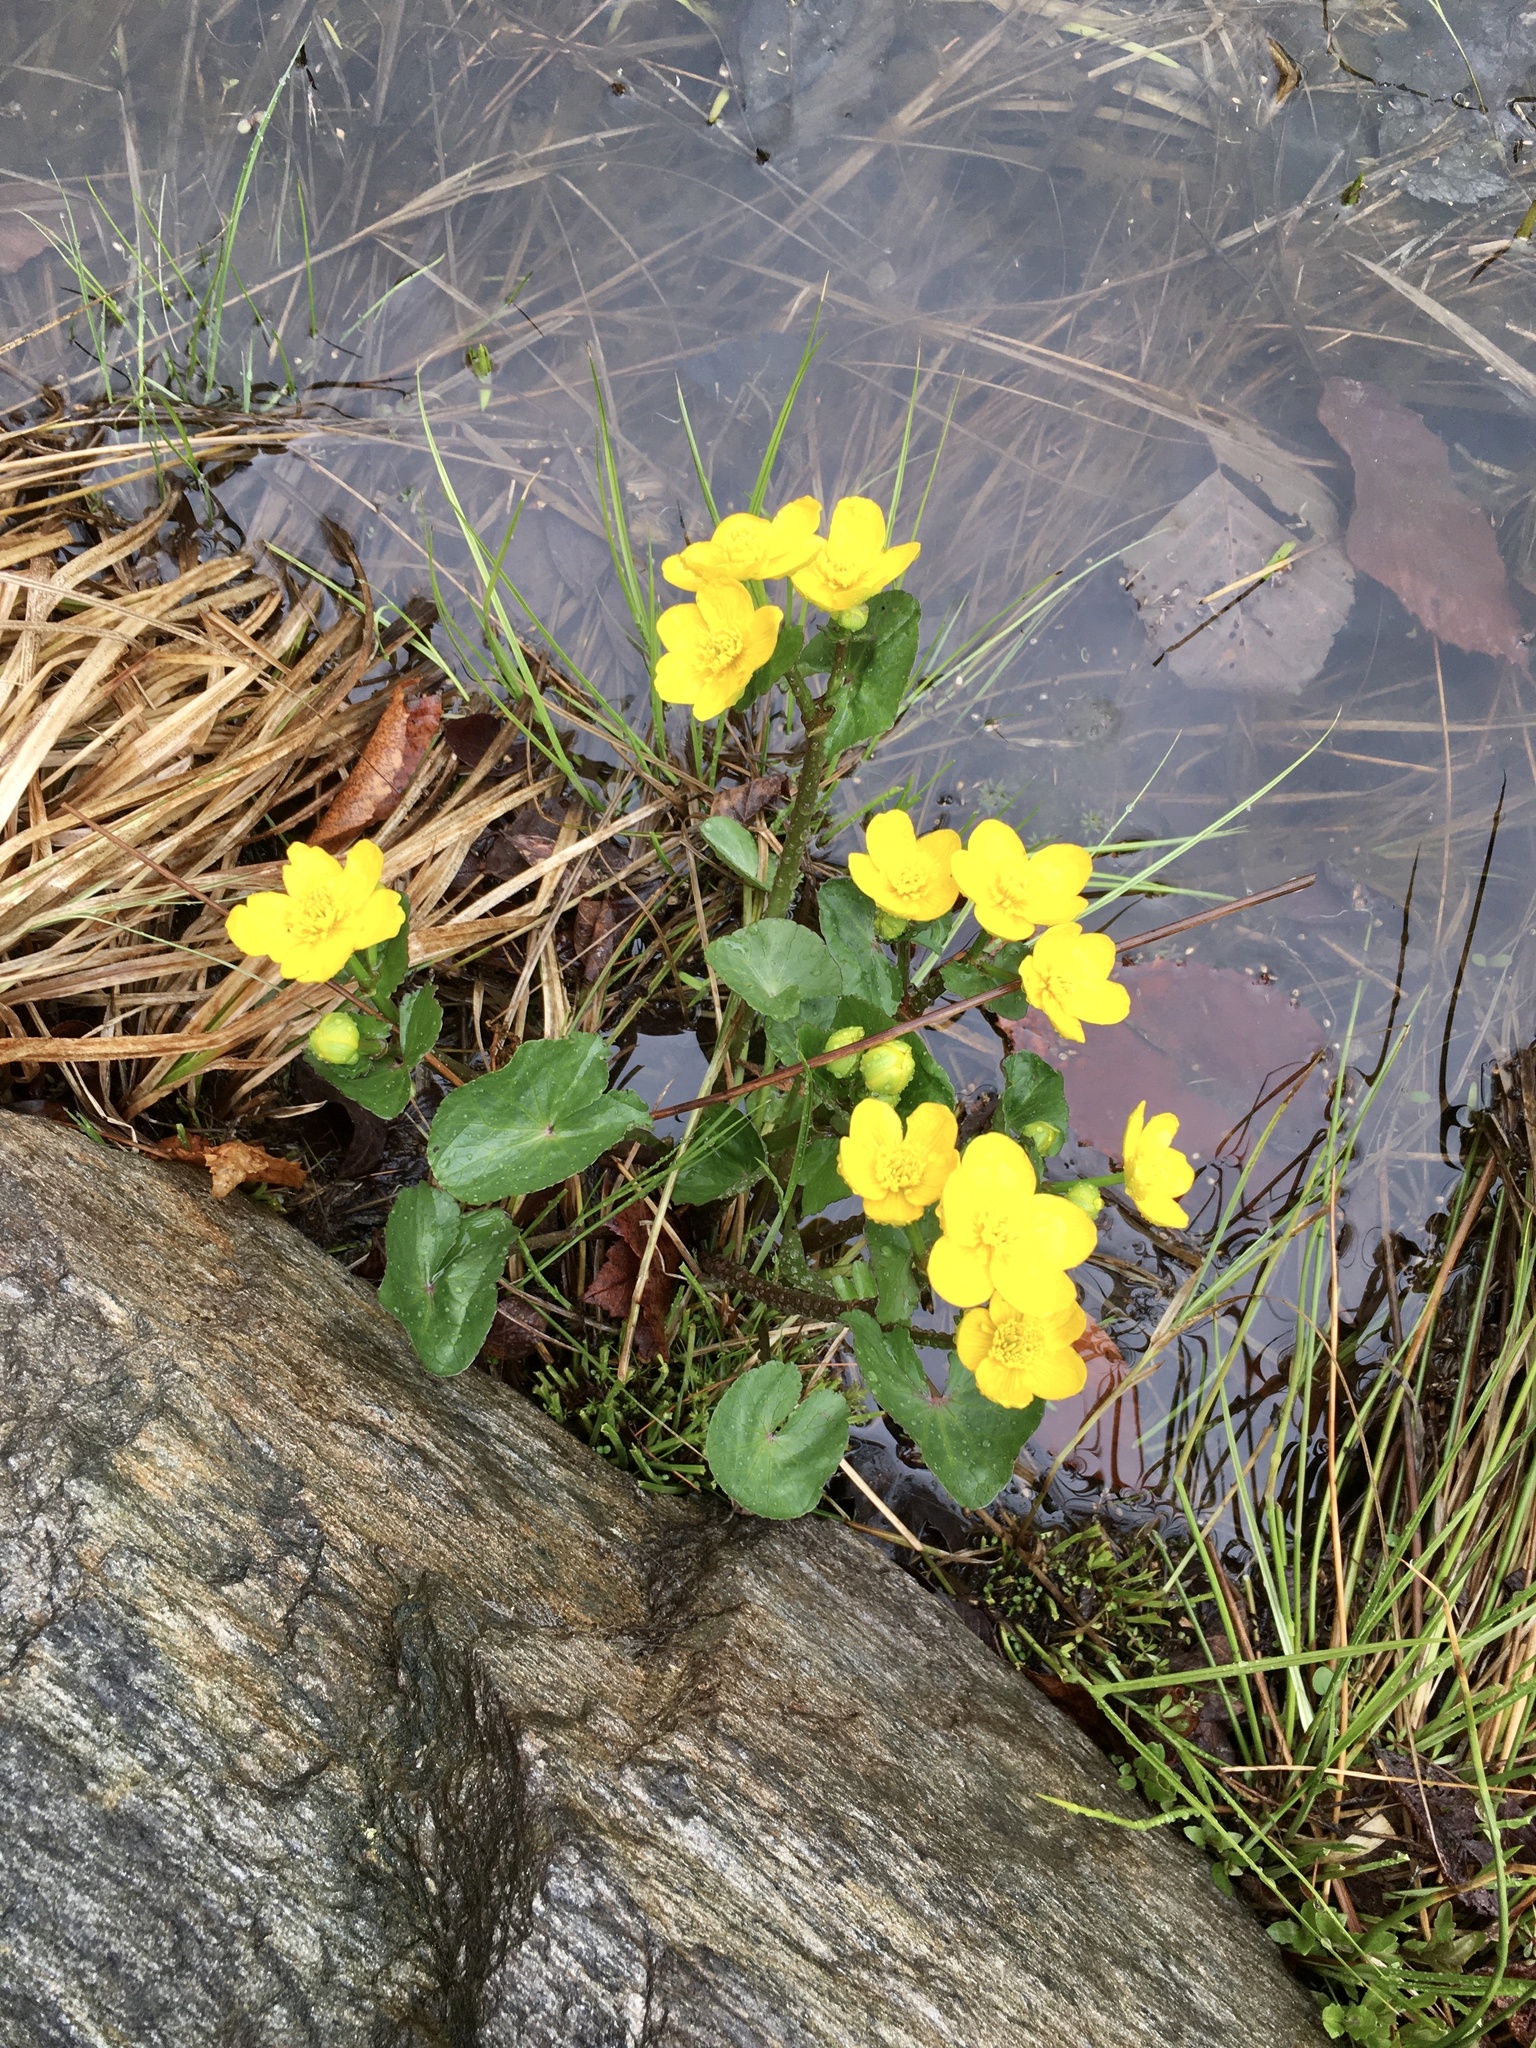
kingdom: Plantae
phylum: Tracheophyta
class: Magnoliopsida
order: Ranunculales
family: Ranunculaceae
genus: Caltha
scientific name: Caltha palustris
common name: Marsh marigold
